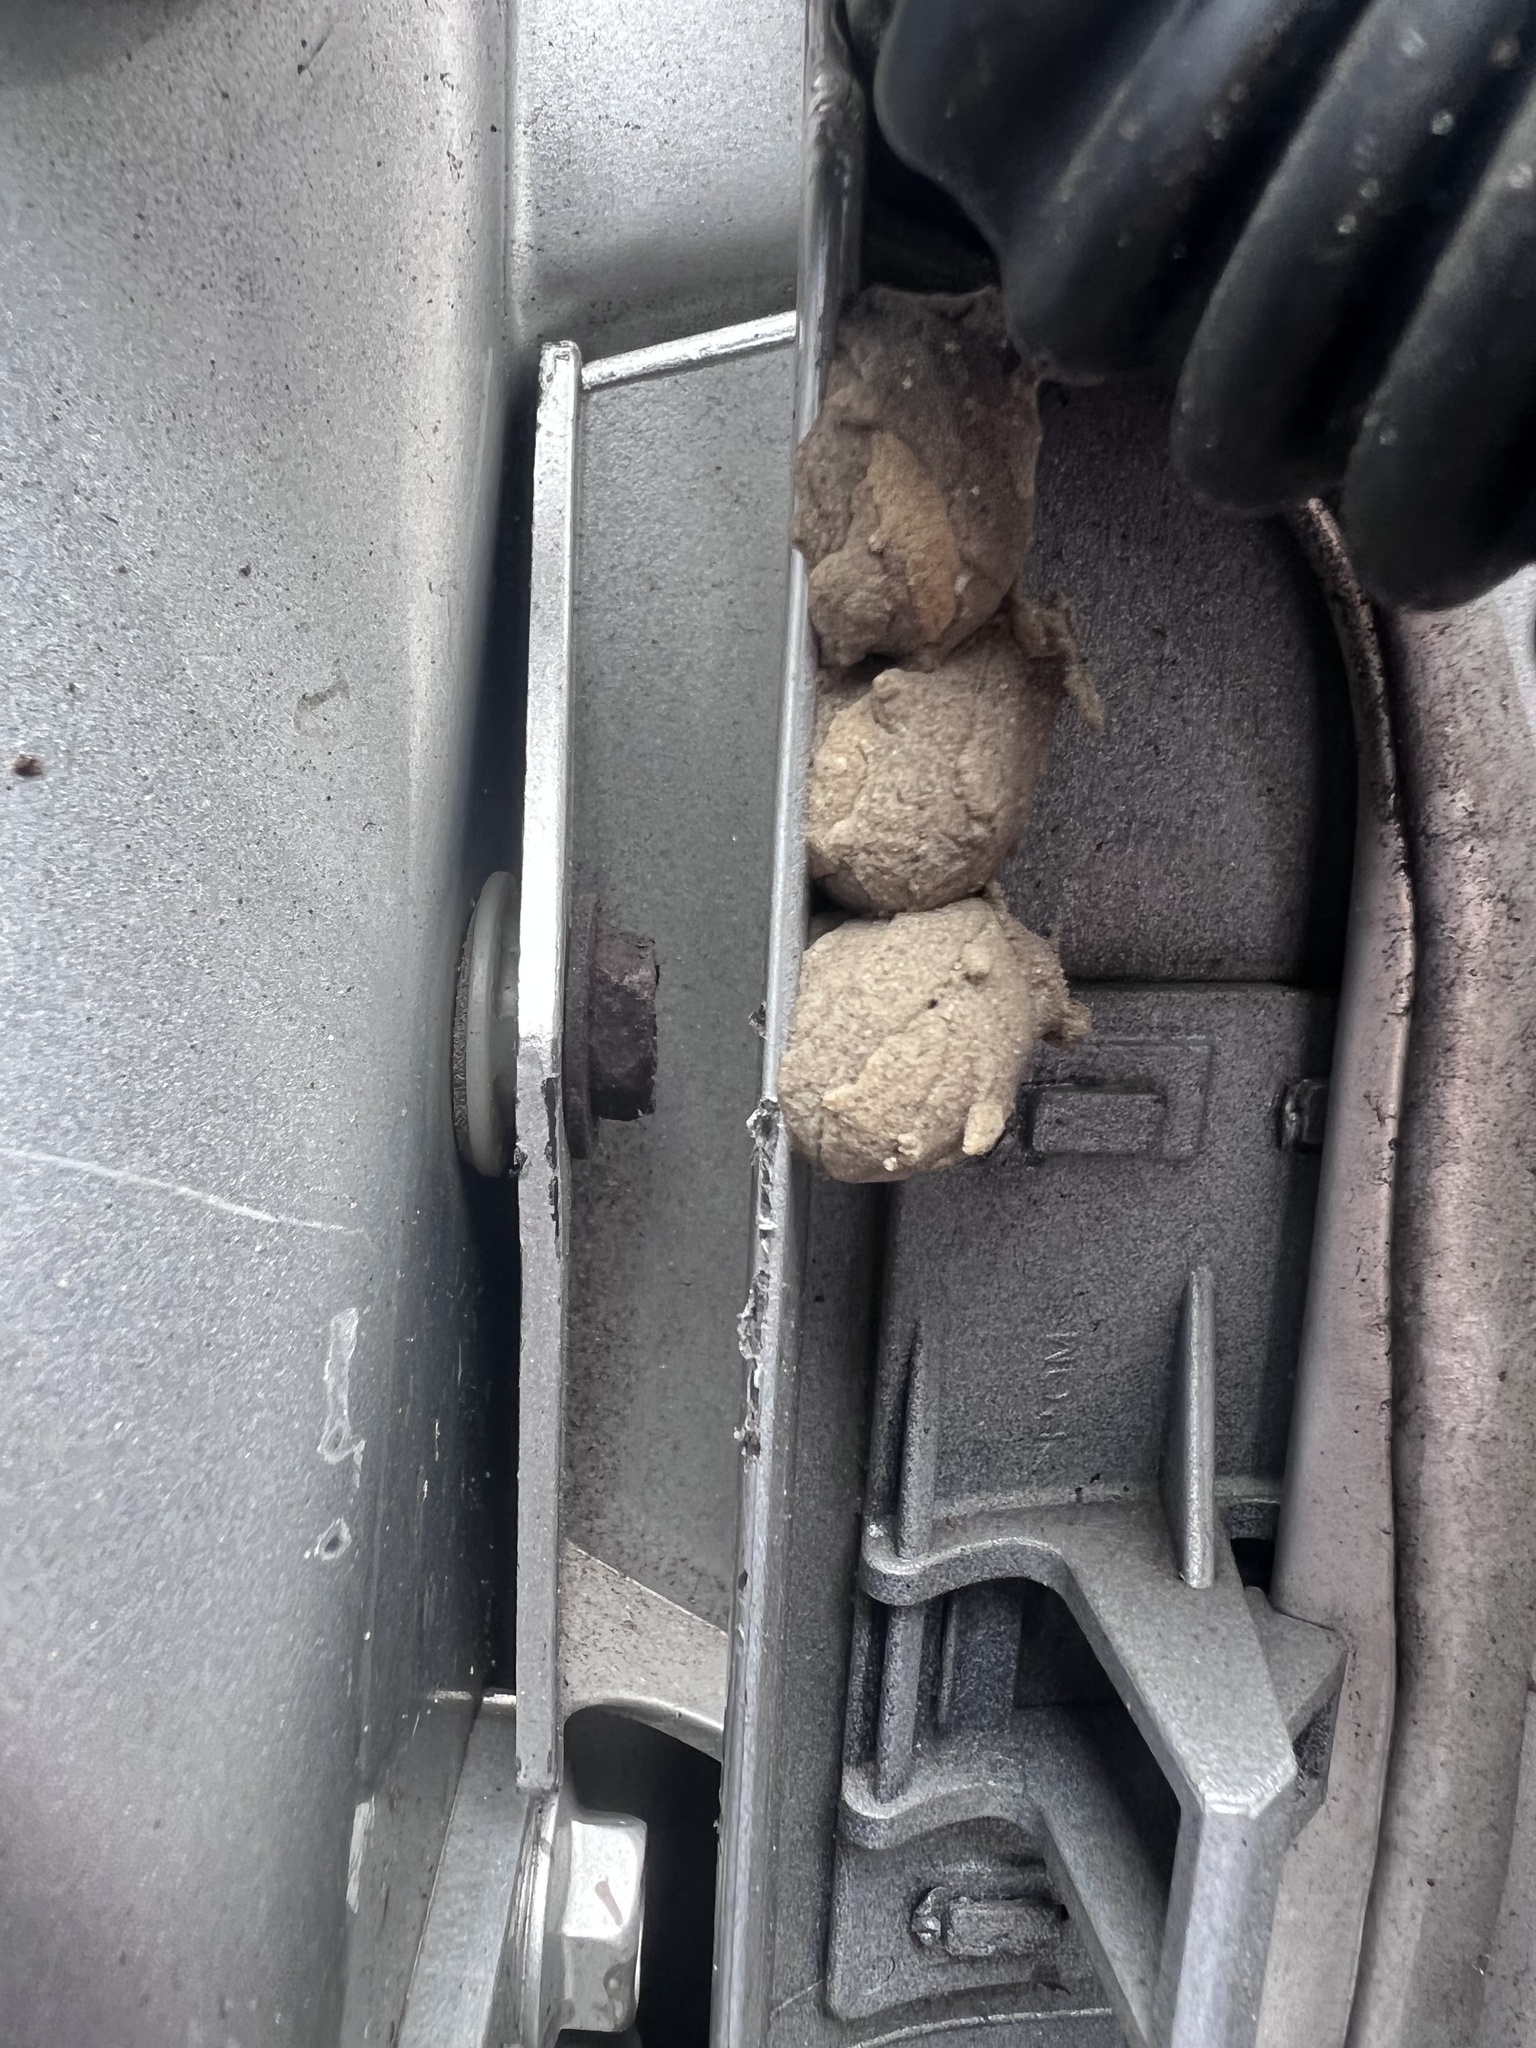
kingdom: Animalia
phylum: Arthropoda
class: Insecta
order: Hymenoptera
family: Eumenidae
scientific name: Eumenidae
